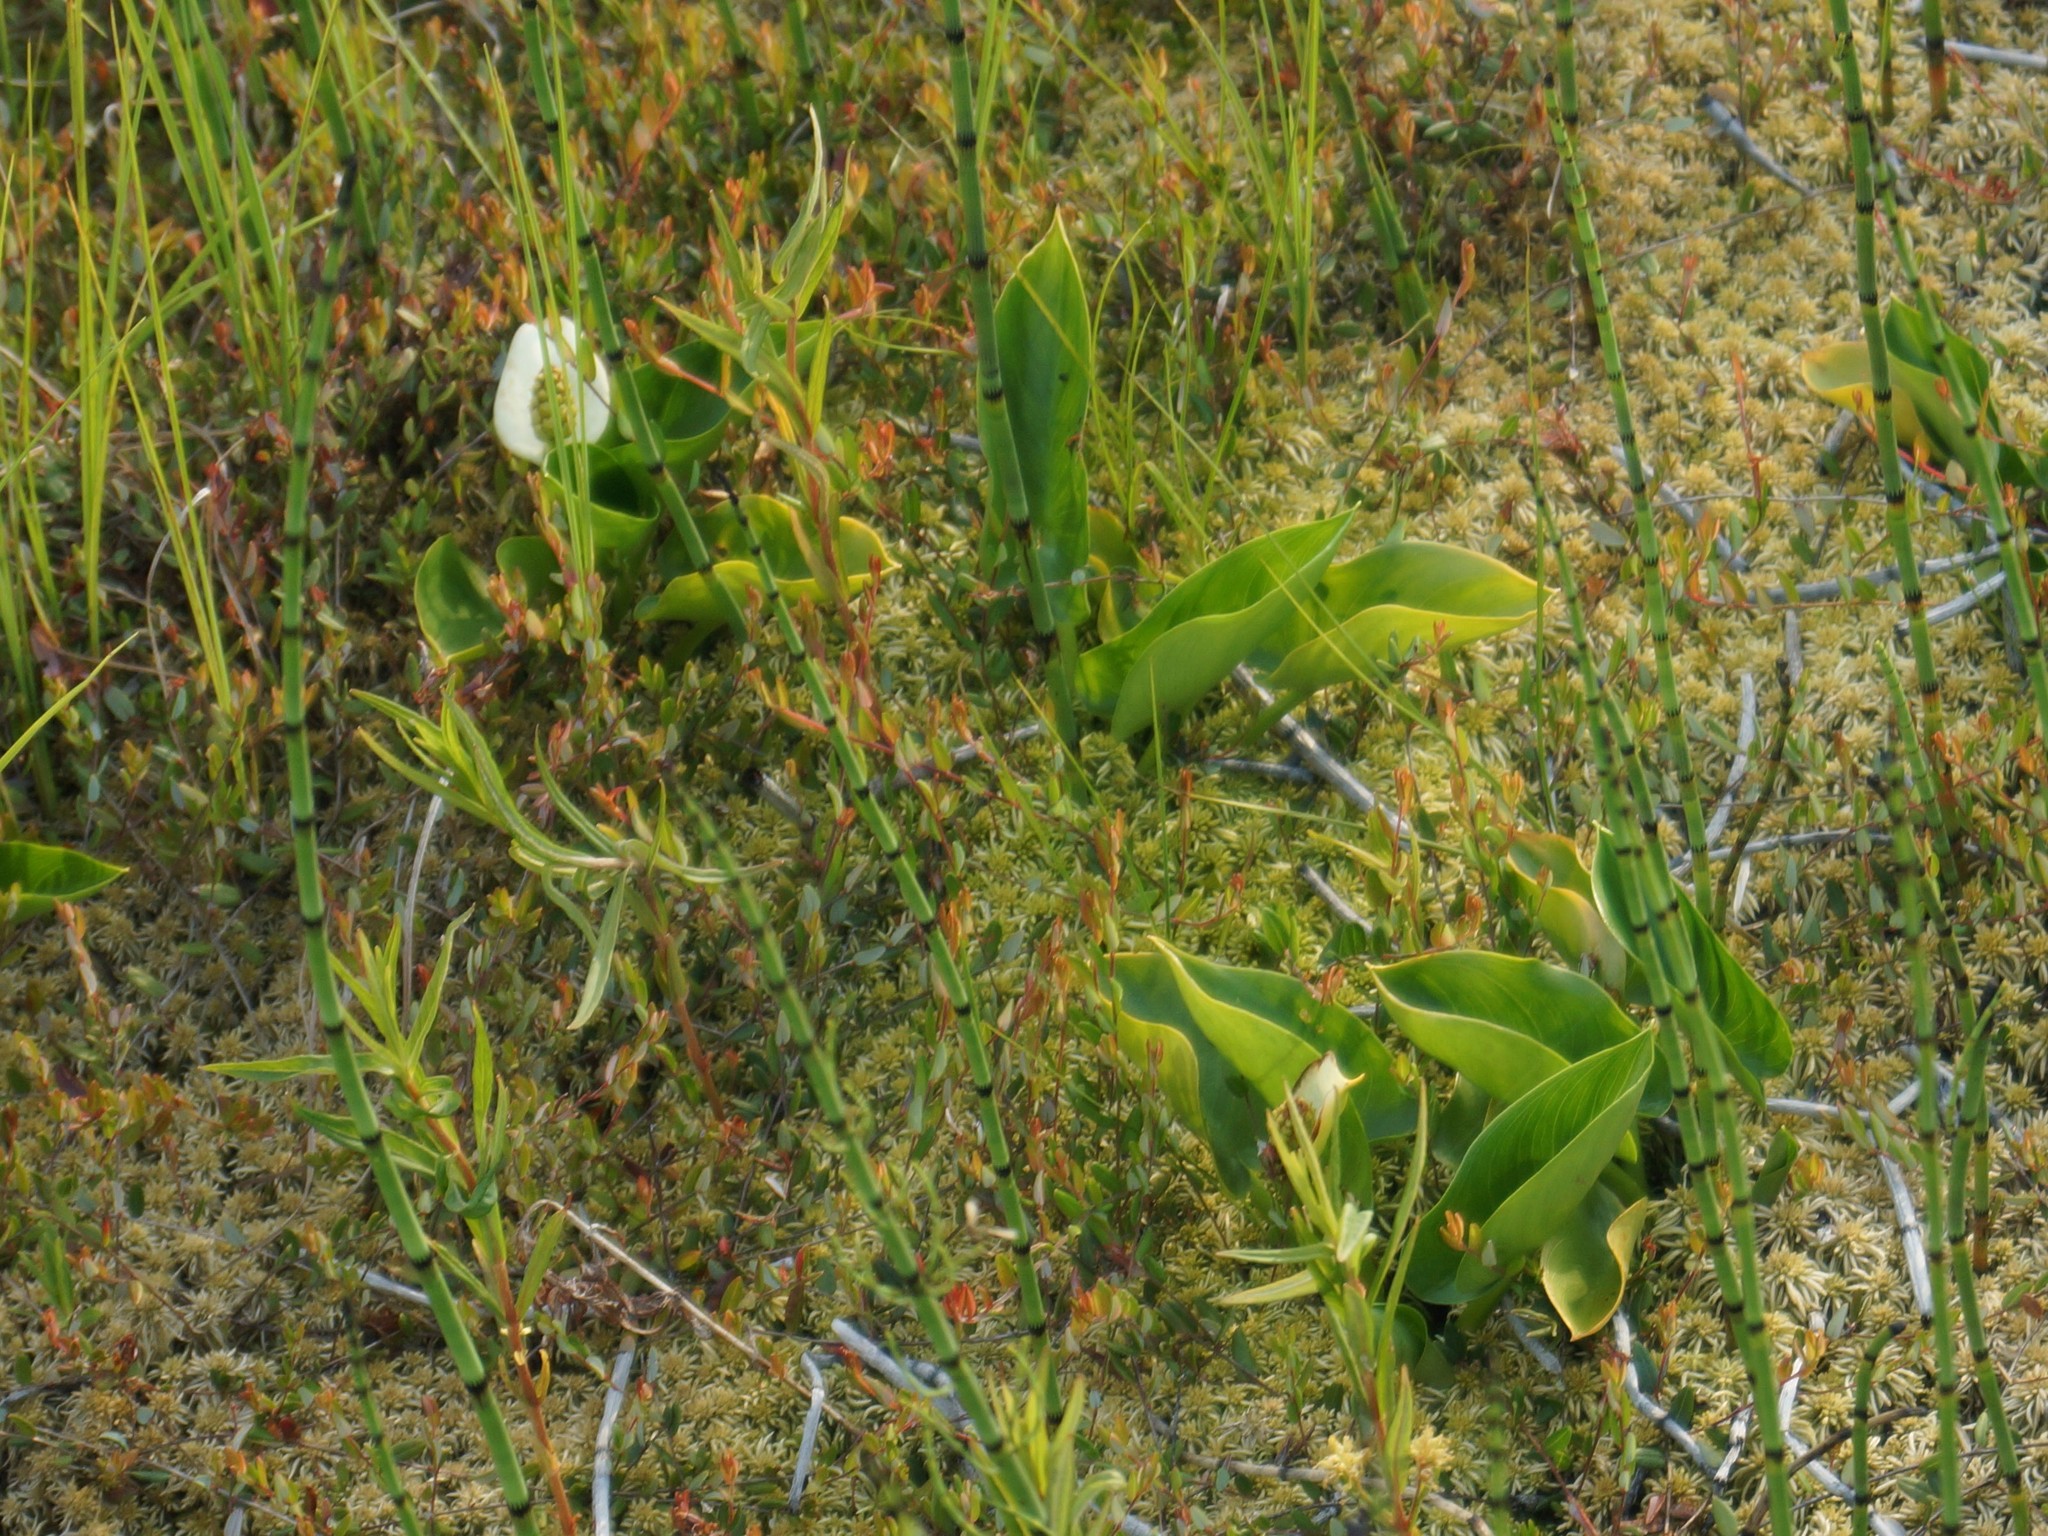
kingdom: Plantae
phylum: Tracheophyta
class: Liliopsida
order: Alismatales
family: Araceae
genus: Calla
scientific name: Calla palustris
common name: Bog arum
